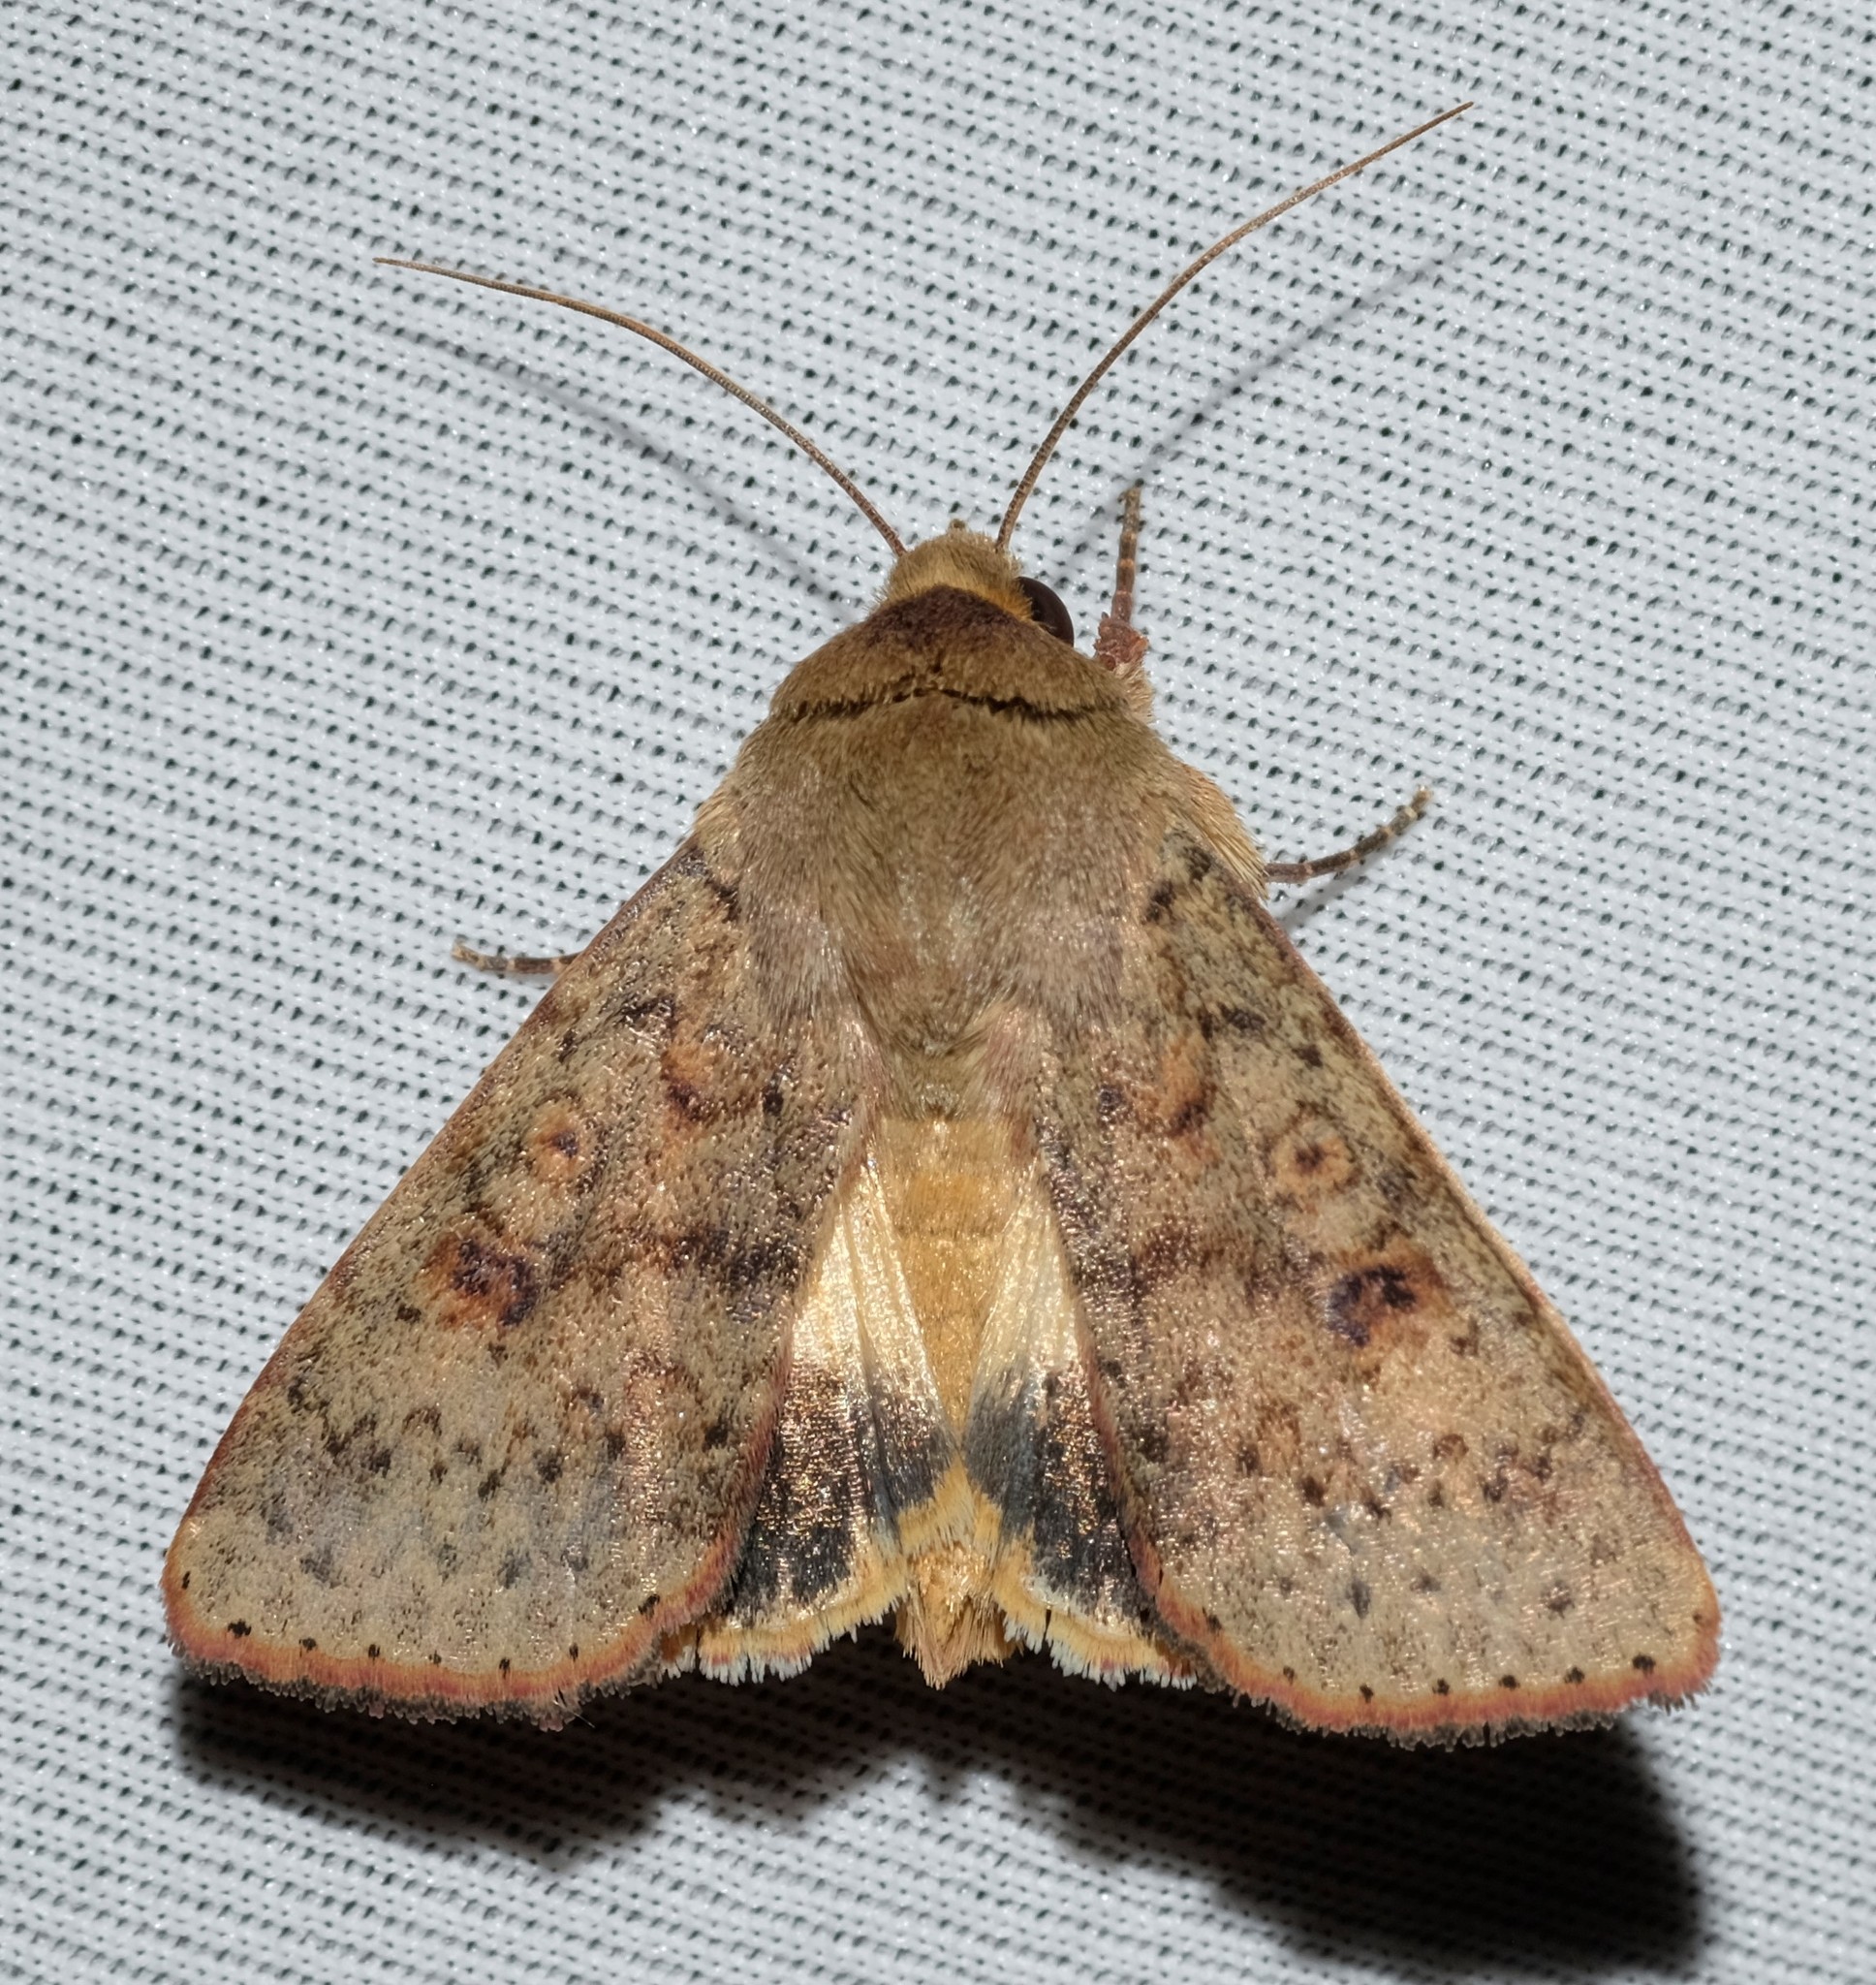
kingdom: Animalia
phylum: Arthropoda
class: Insecta
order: Lepidoptera
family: Noctuidae
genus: Australothis
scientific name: Australothis rubrescens
